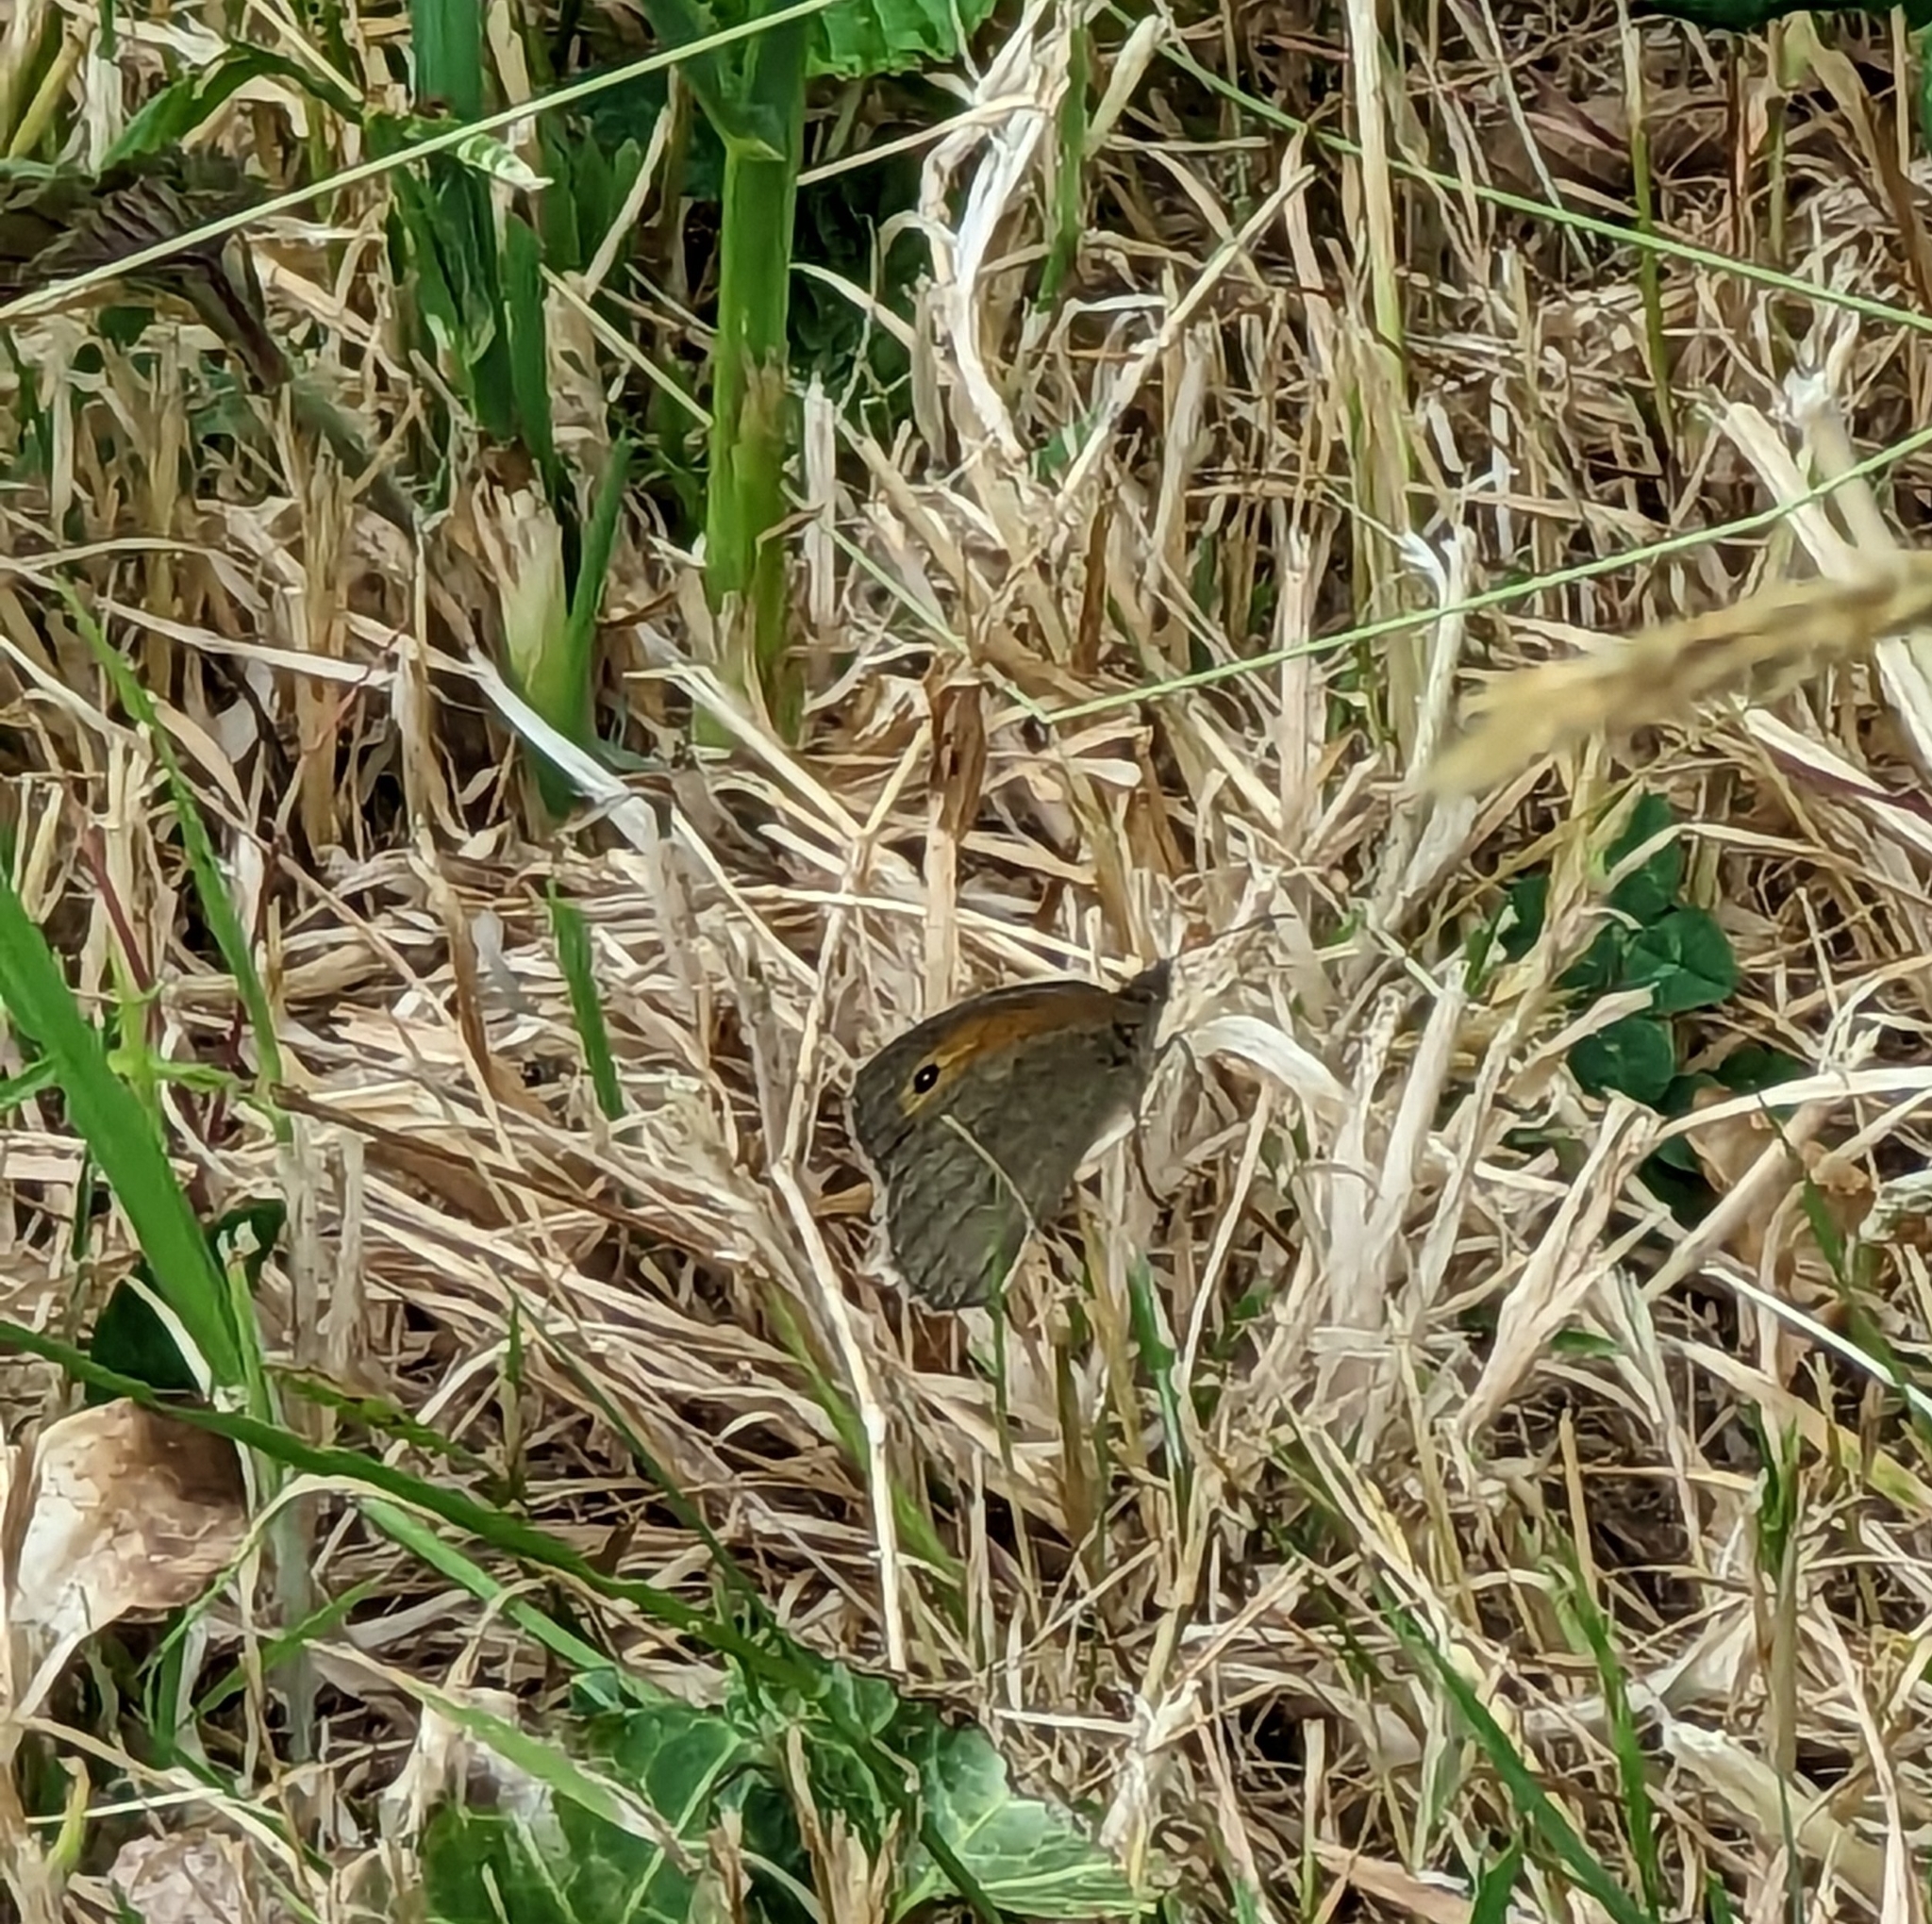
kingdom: Animalia
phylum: Arthropoda
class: Insecta
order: Lepidoptera
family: Nymphalidae
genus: Maniola
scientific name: Maniola jurtina
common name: Meadow brown
